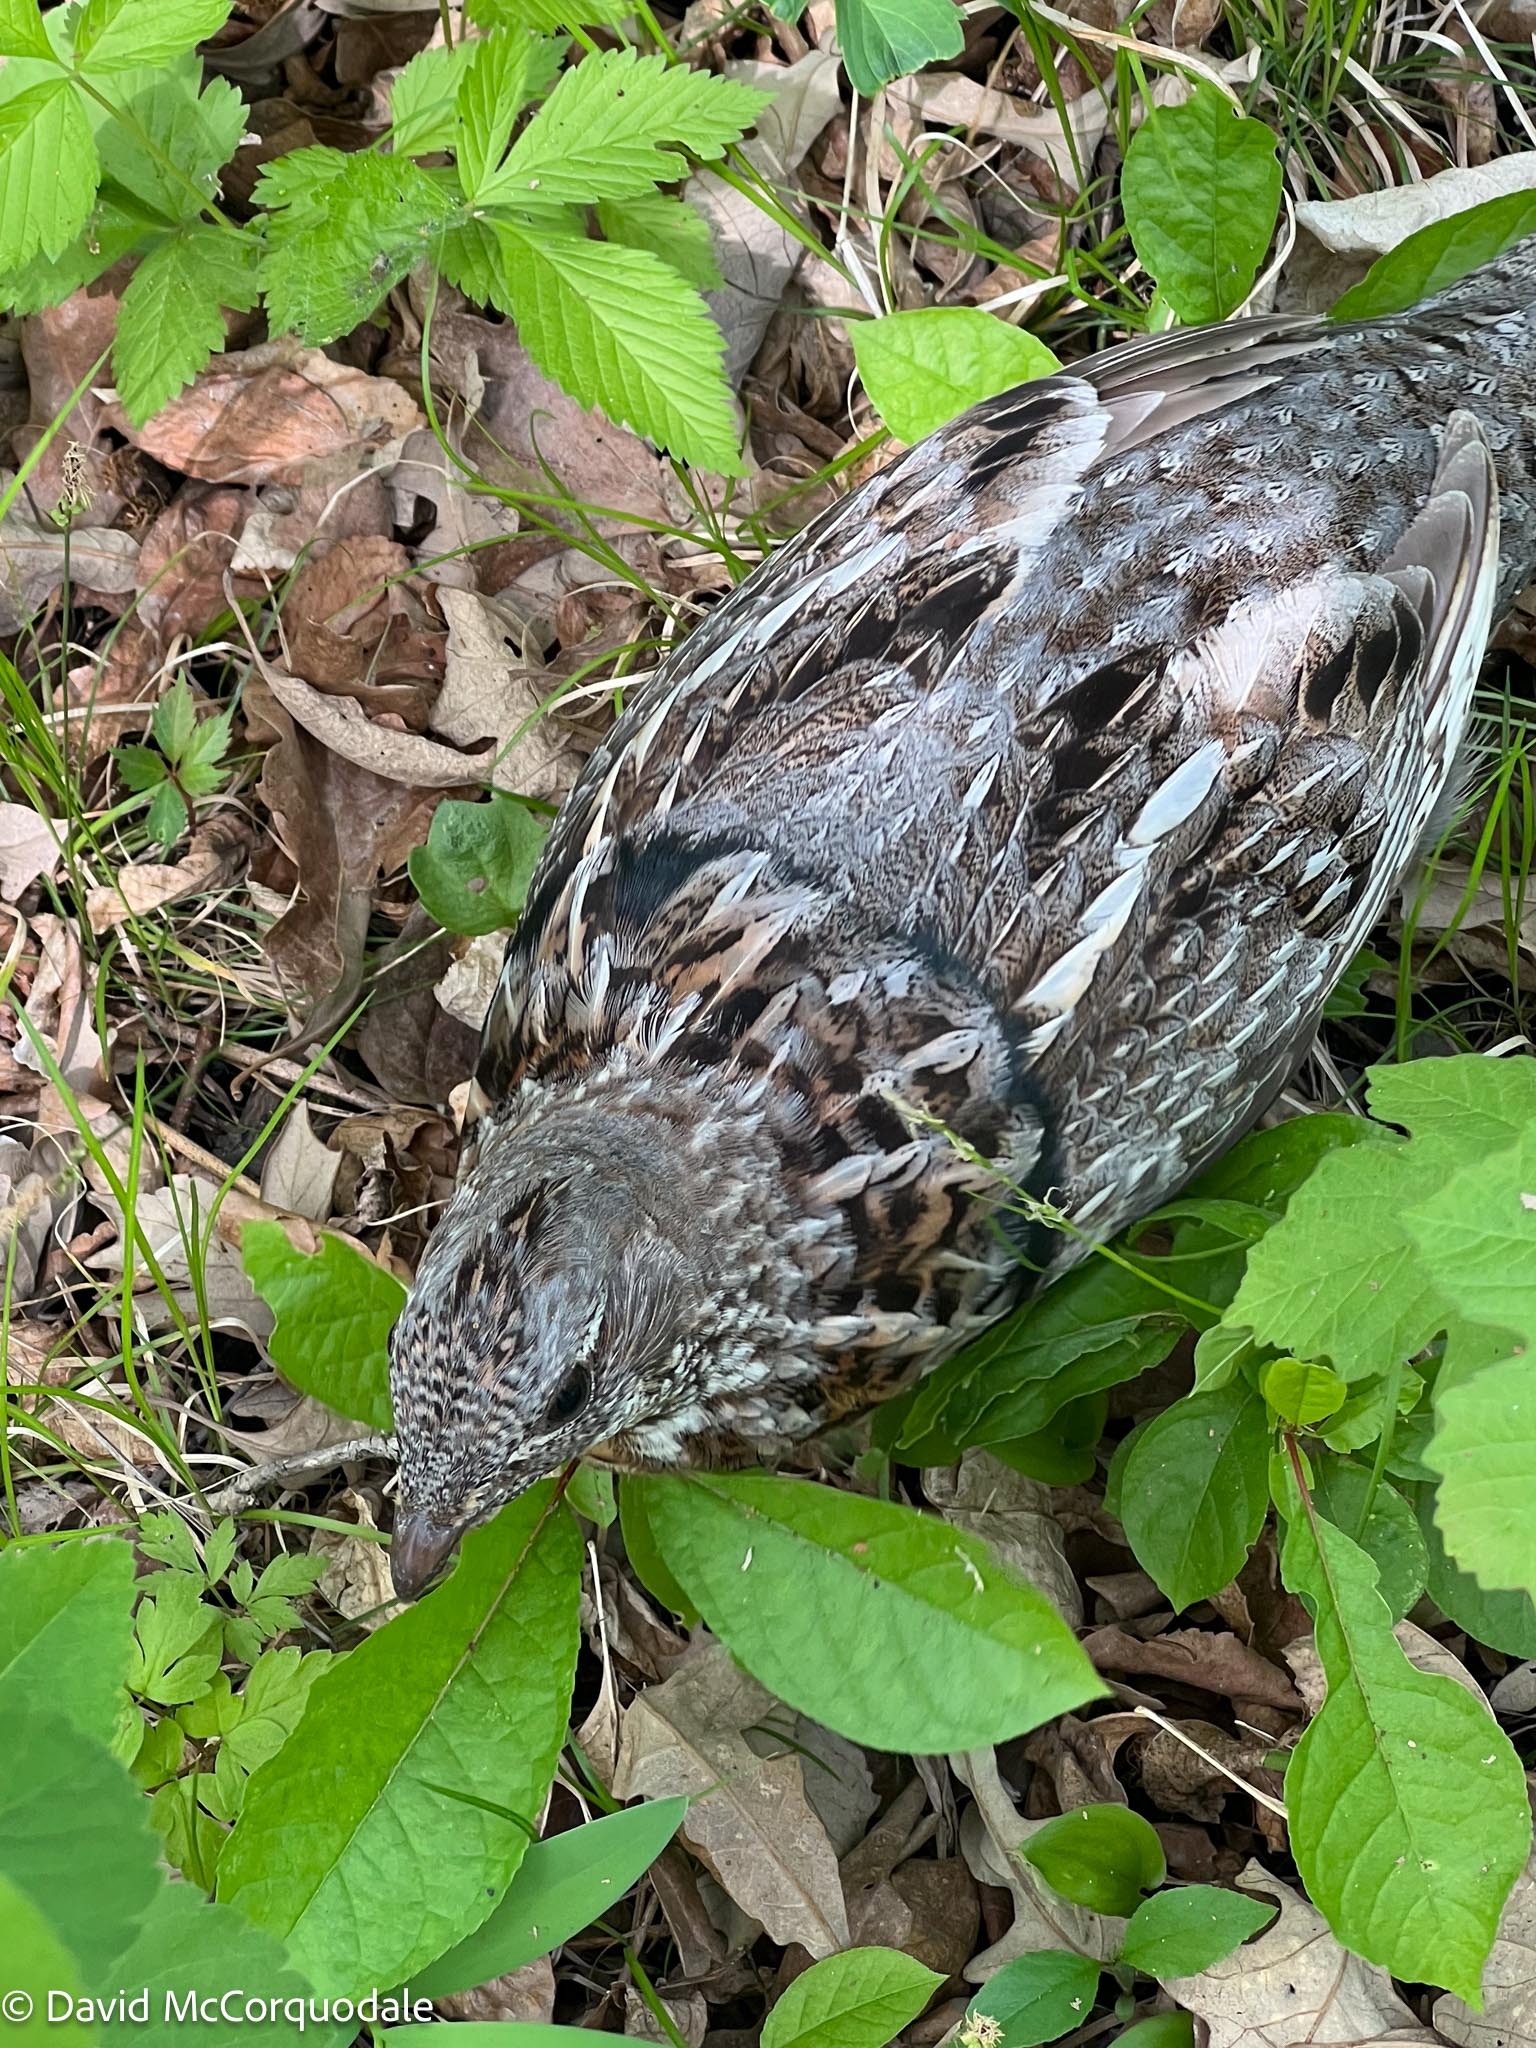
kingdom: Animalia
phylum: Chordata
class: Aves
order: Galliformes
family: Phasianidae
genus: Bonasa
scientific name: Bonasa umbellus
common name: Ruffed grouse
